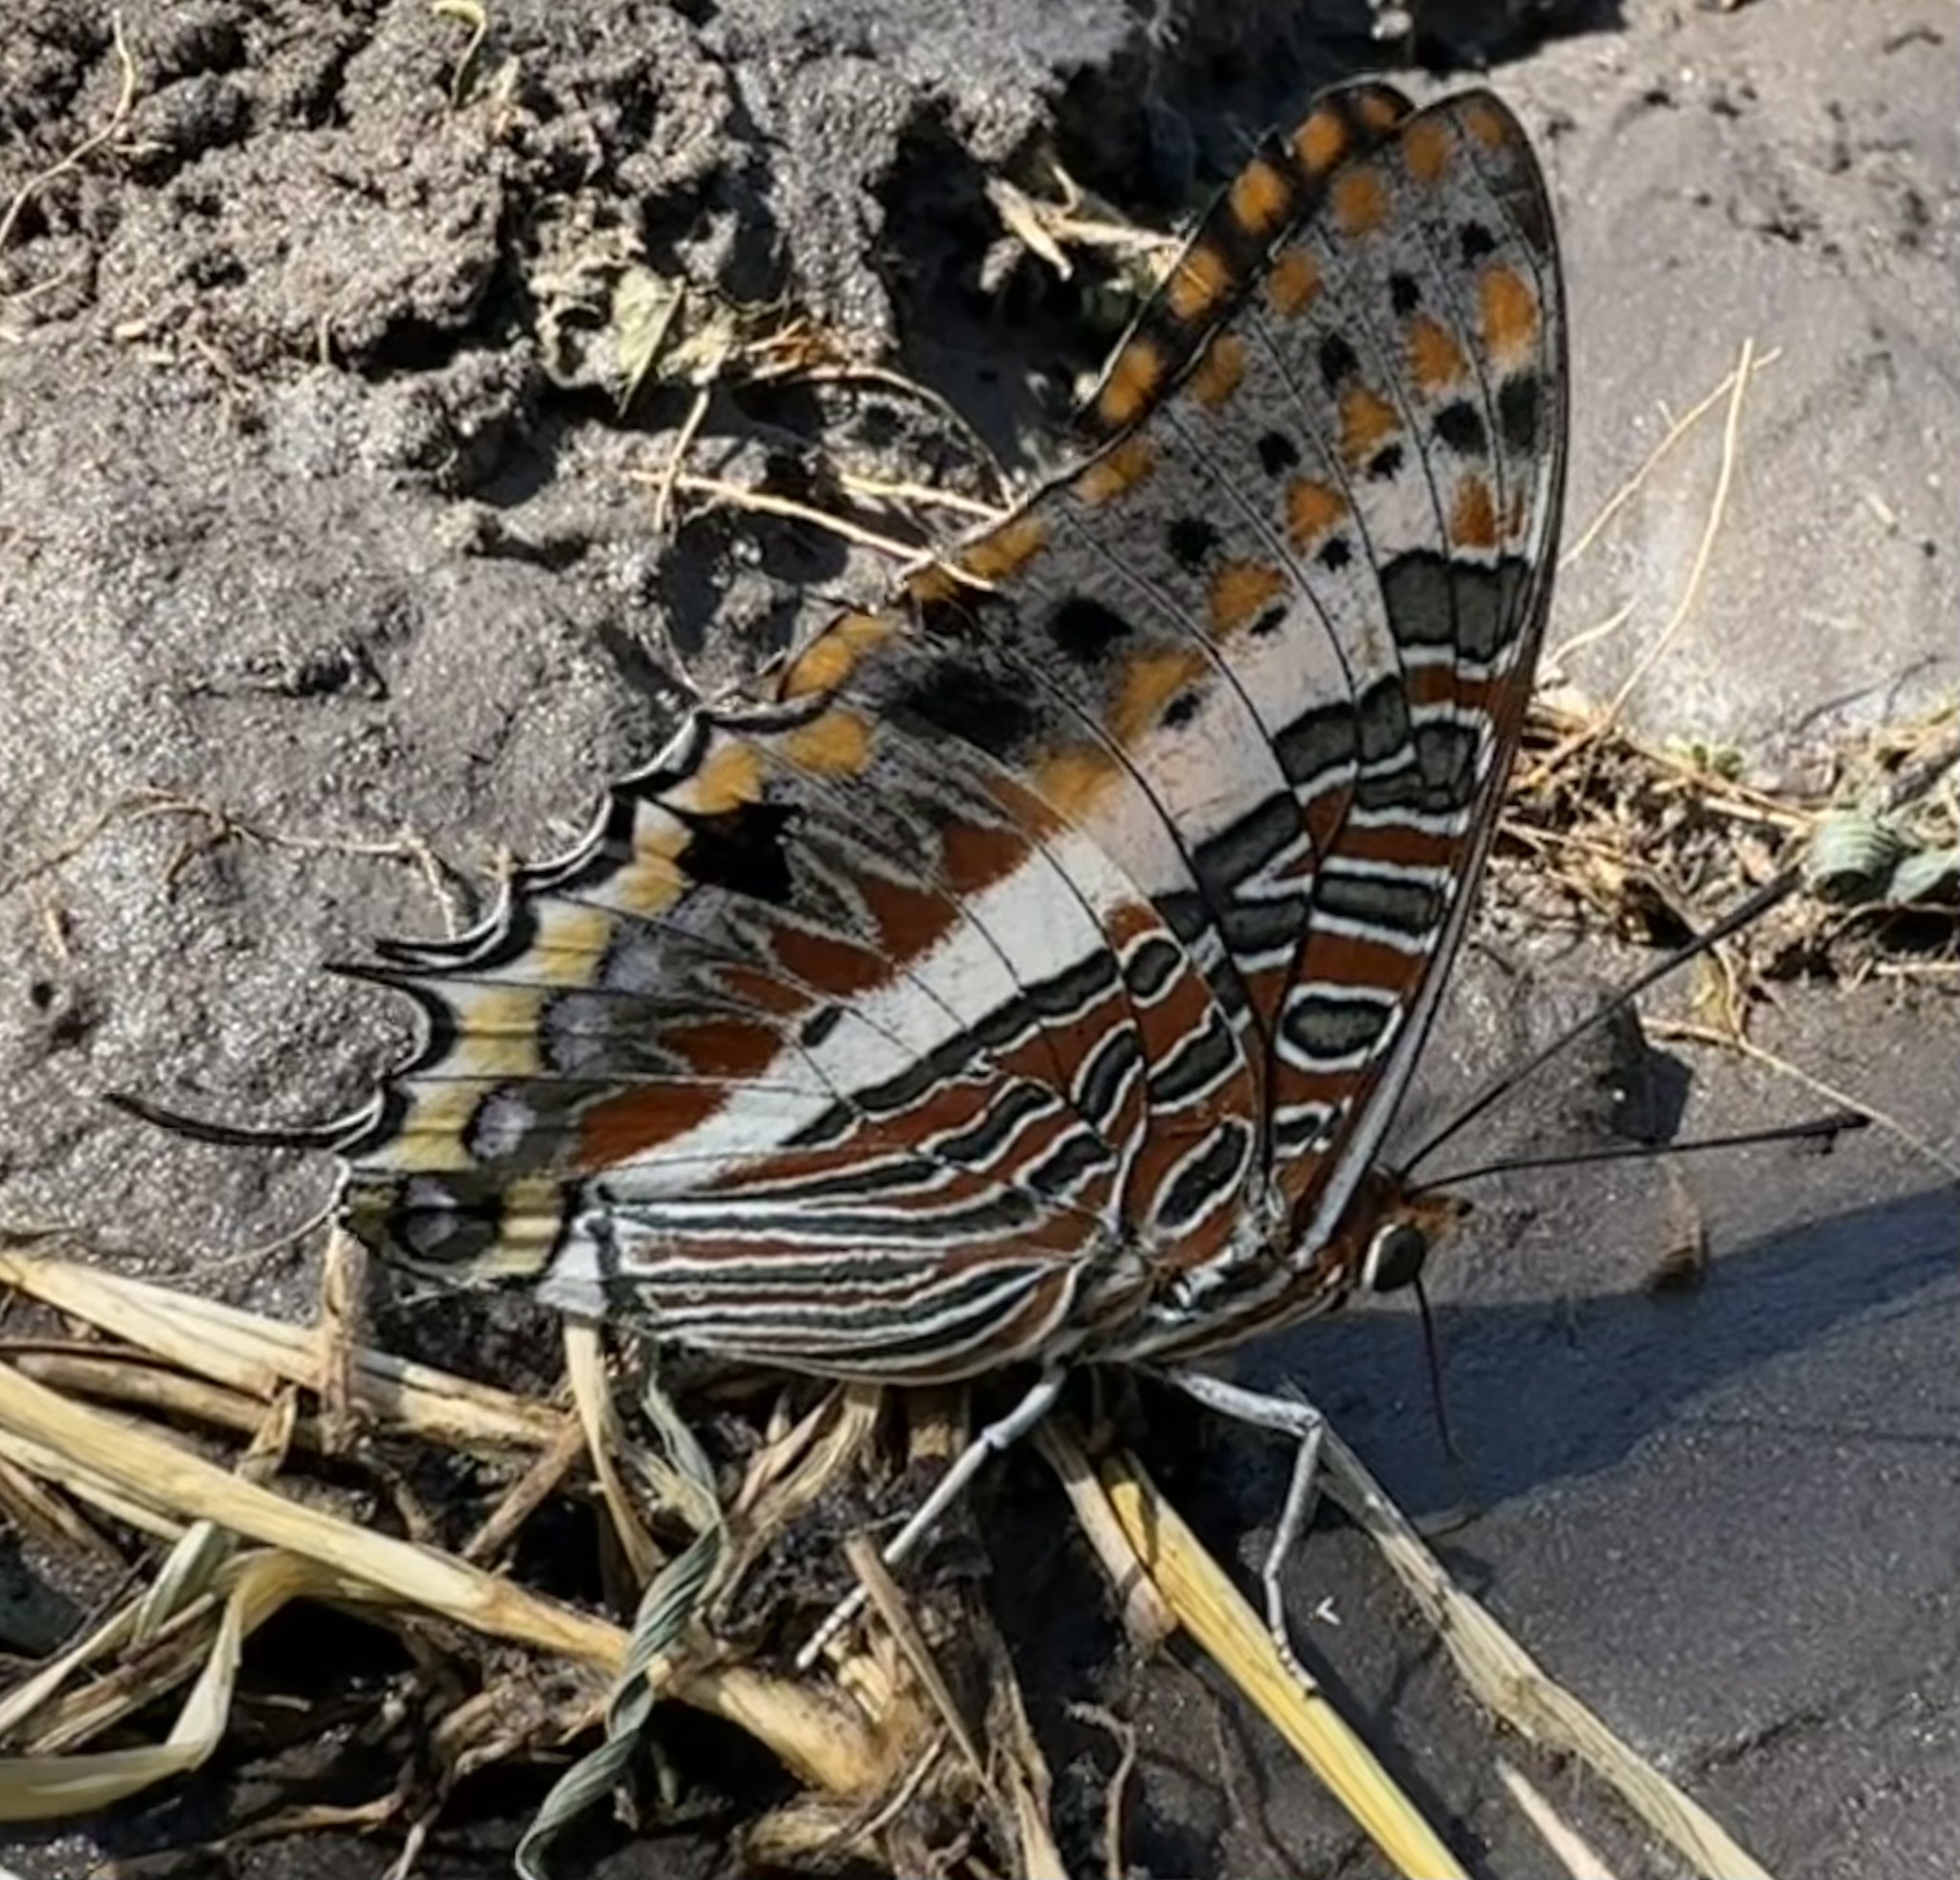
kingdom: Animalia
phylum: Arthropoda
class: Insecta
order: Lepidoptera
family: Nymphalidae
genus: Charaxes
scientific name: Charaxes jasius
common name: Two tailed pasha
